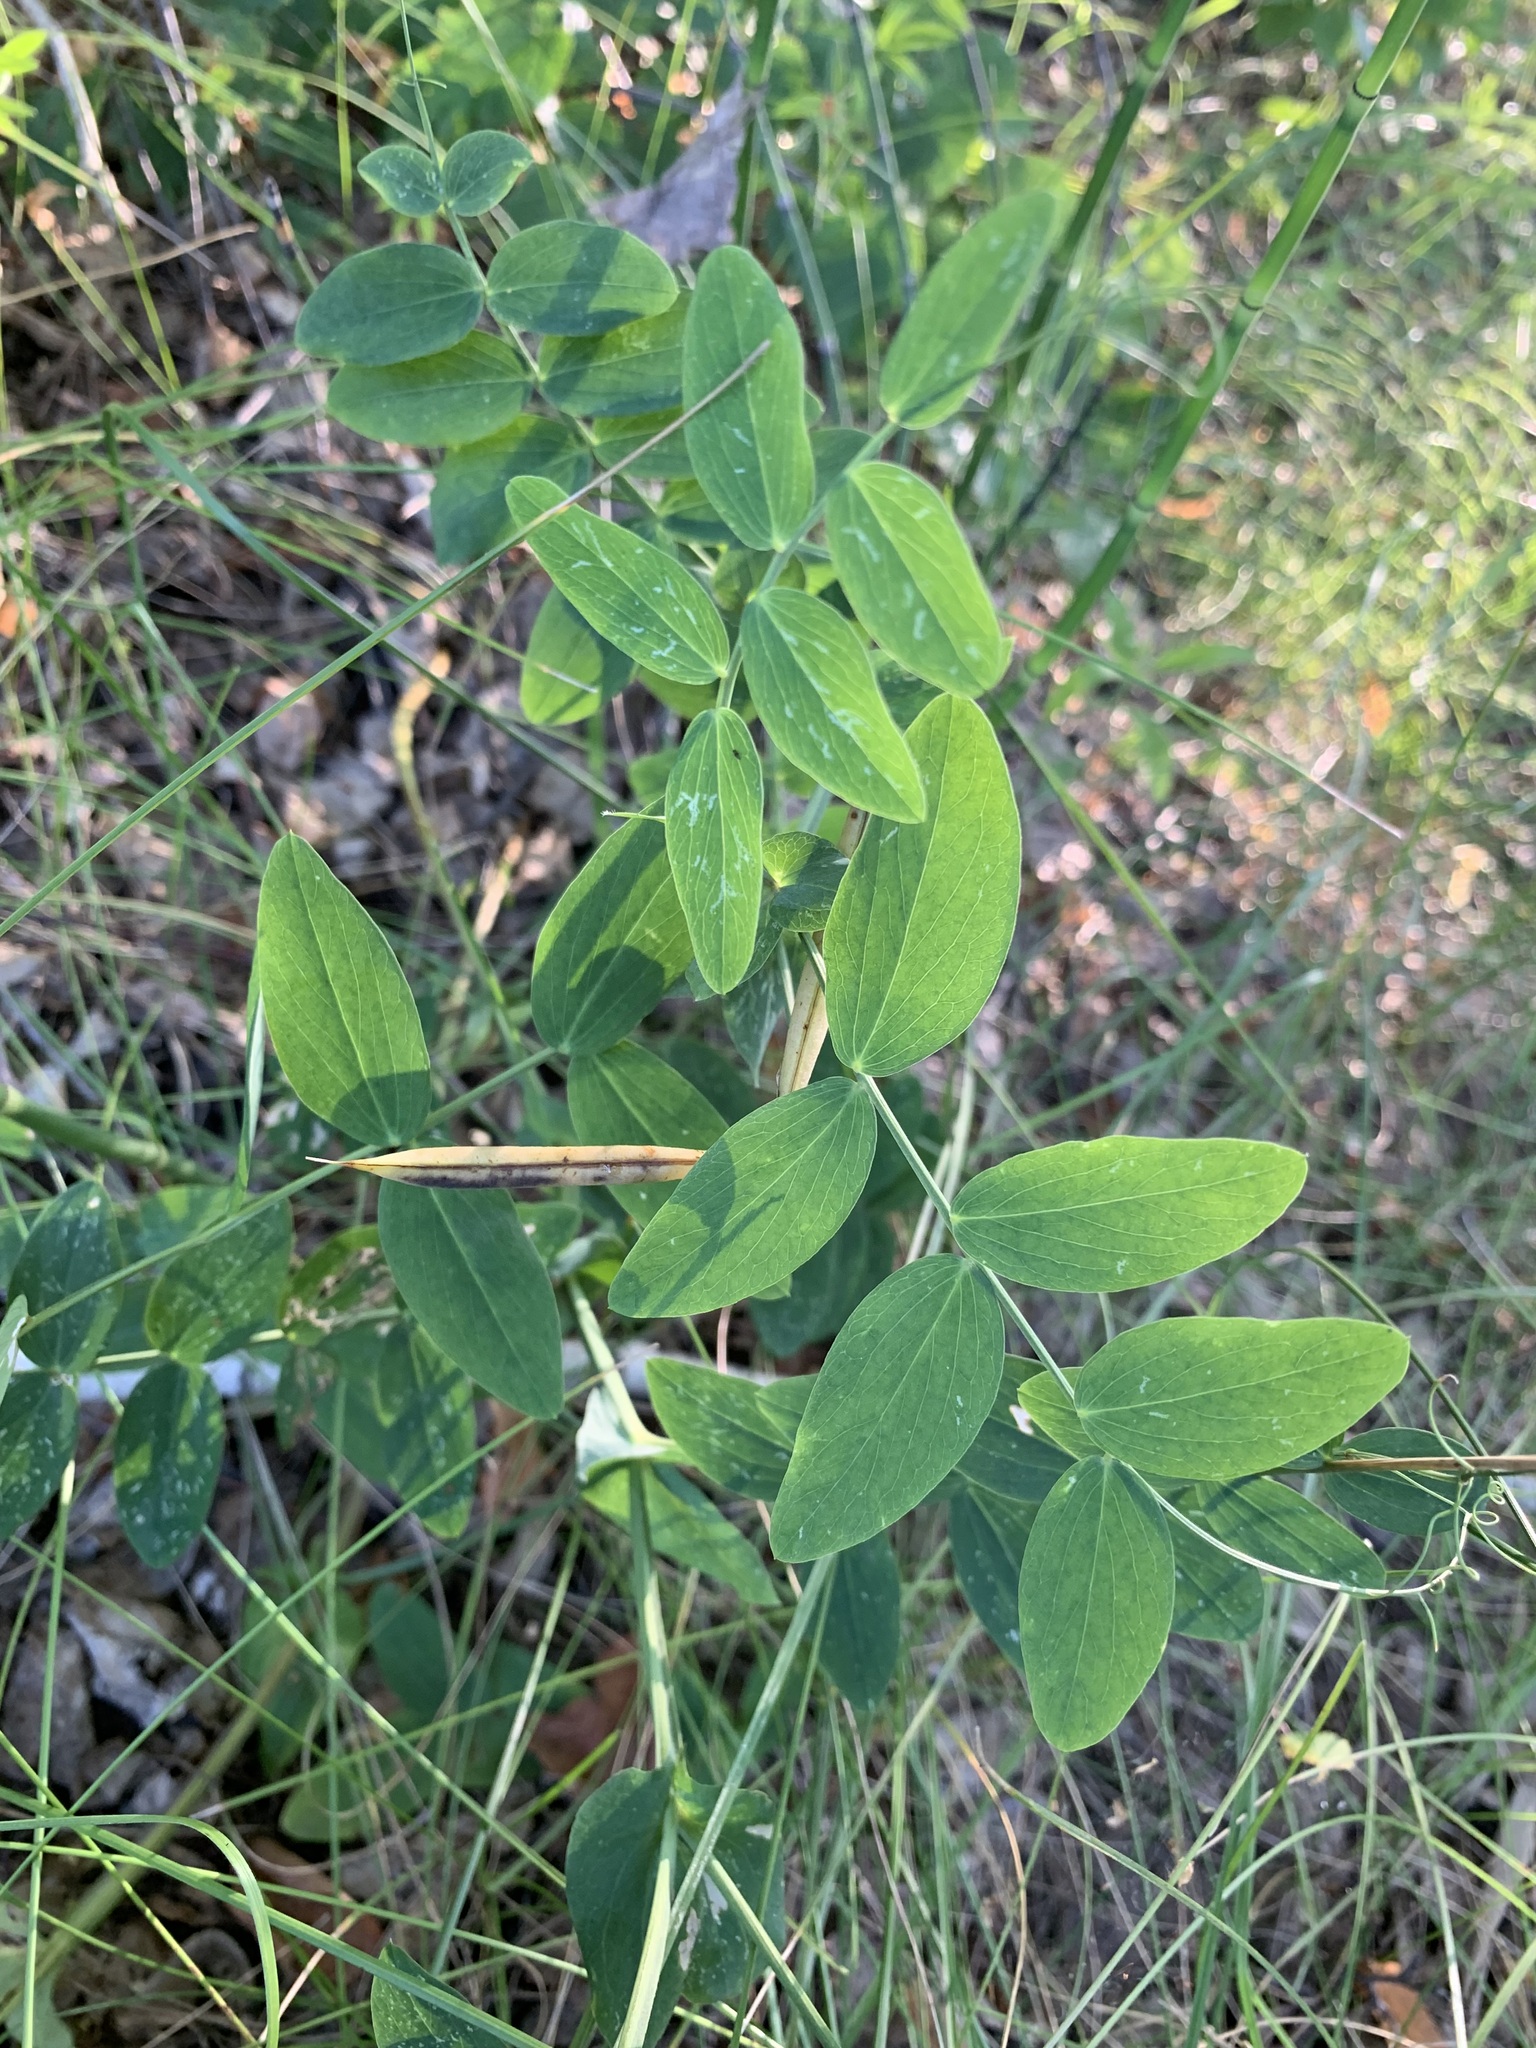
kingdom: Plantae
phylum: Tracheophyta
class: Magnoliopsida
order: Fabales
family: Fabaceae
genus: Lathyrus
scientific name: Lathyrus pisiformis
